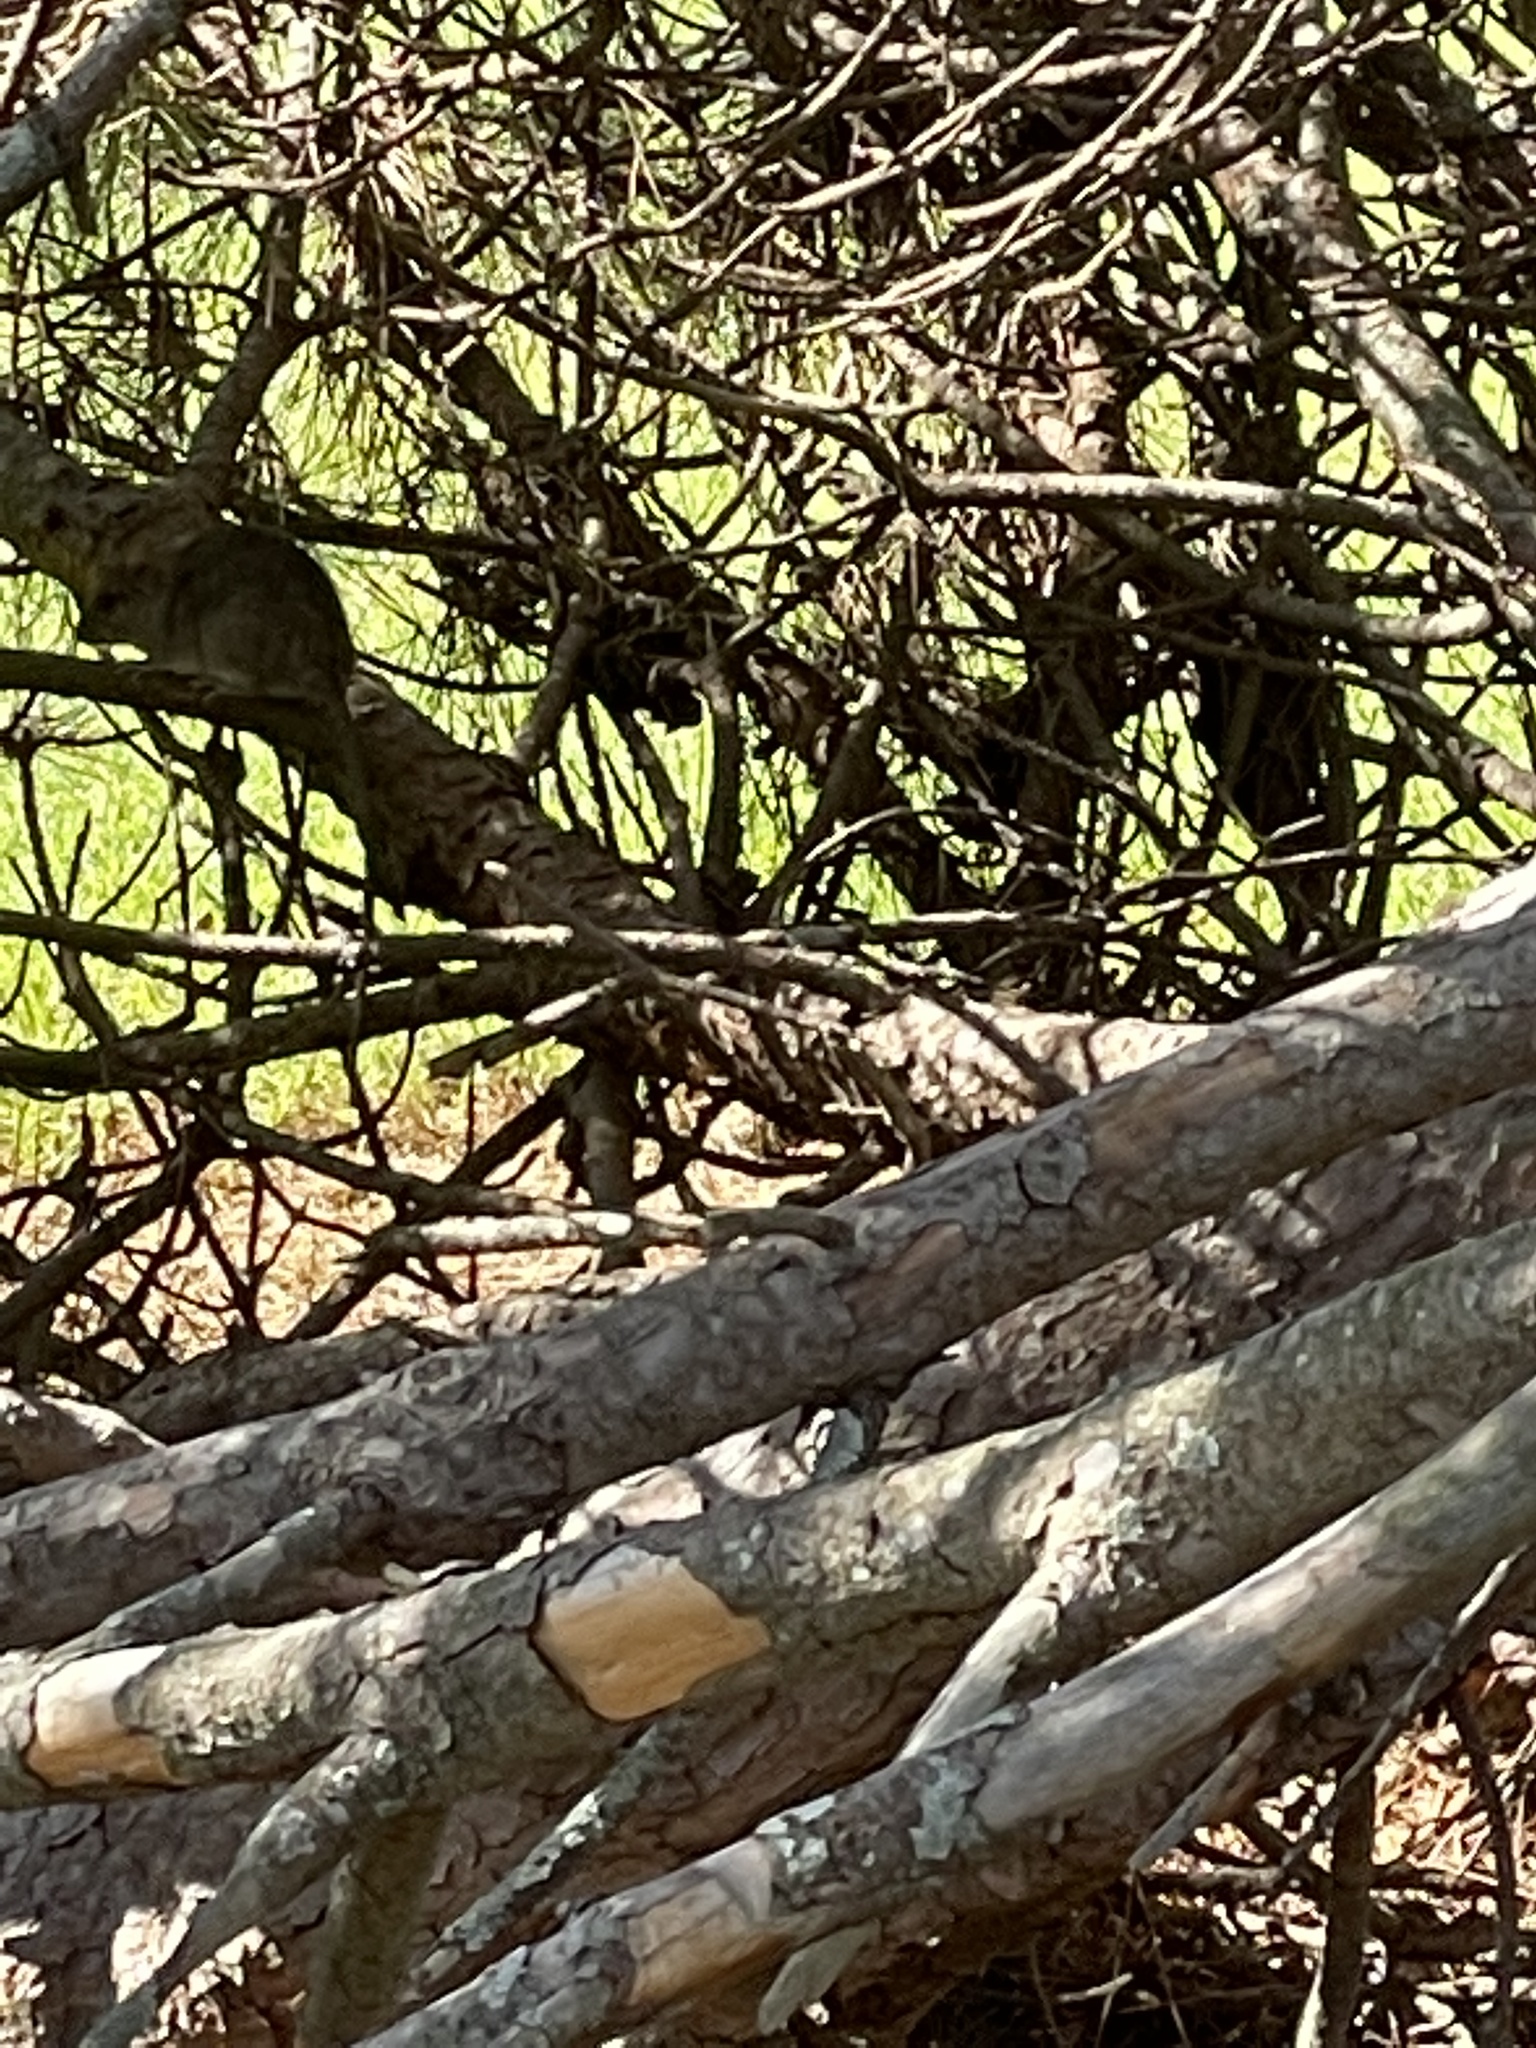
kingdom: Animalia
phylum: Chordata
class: Mammalia
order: Rodentia
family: Muridae
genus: Rattus
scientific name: Rattus rattus
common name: Black rat
